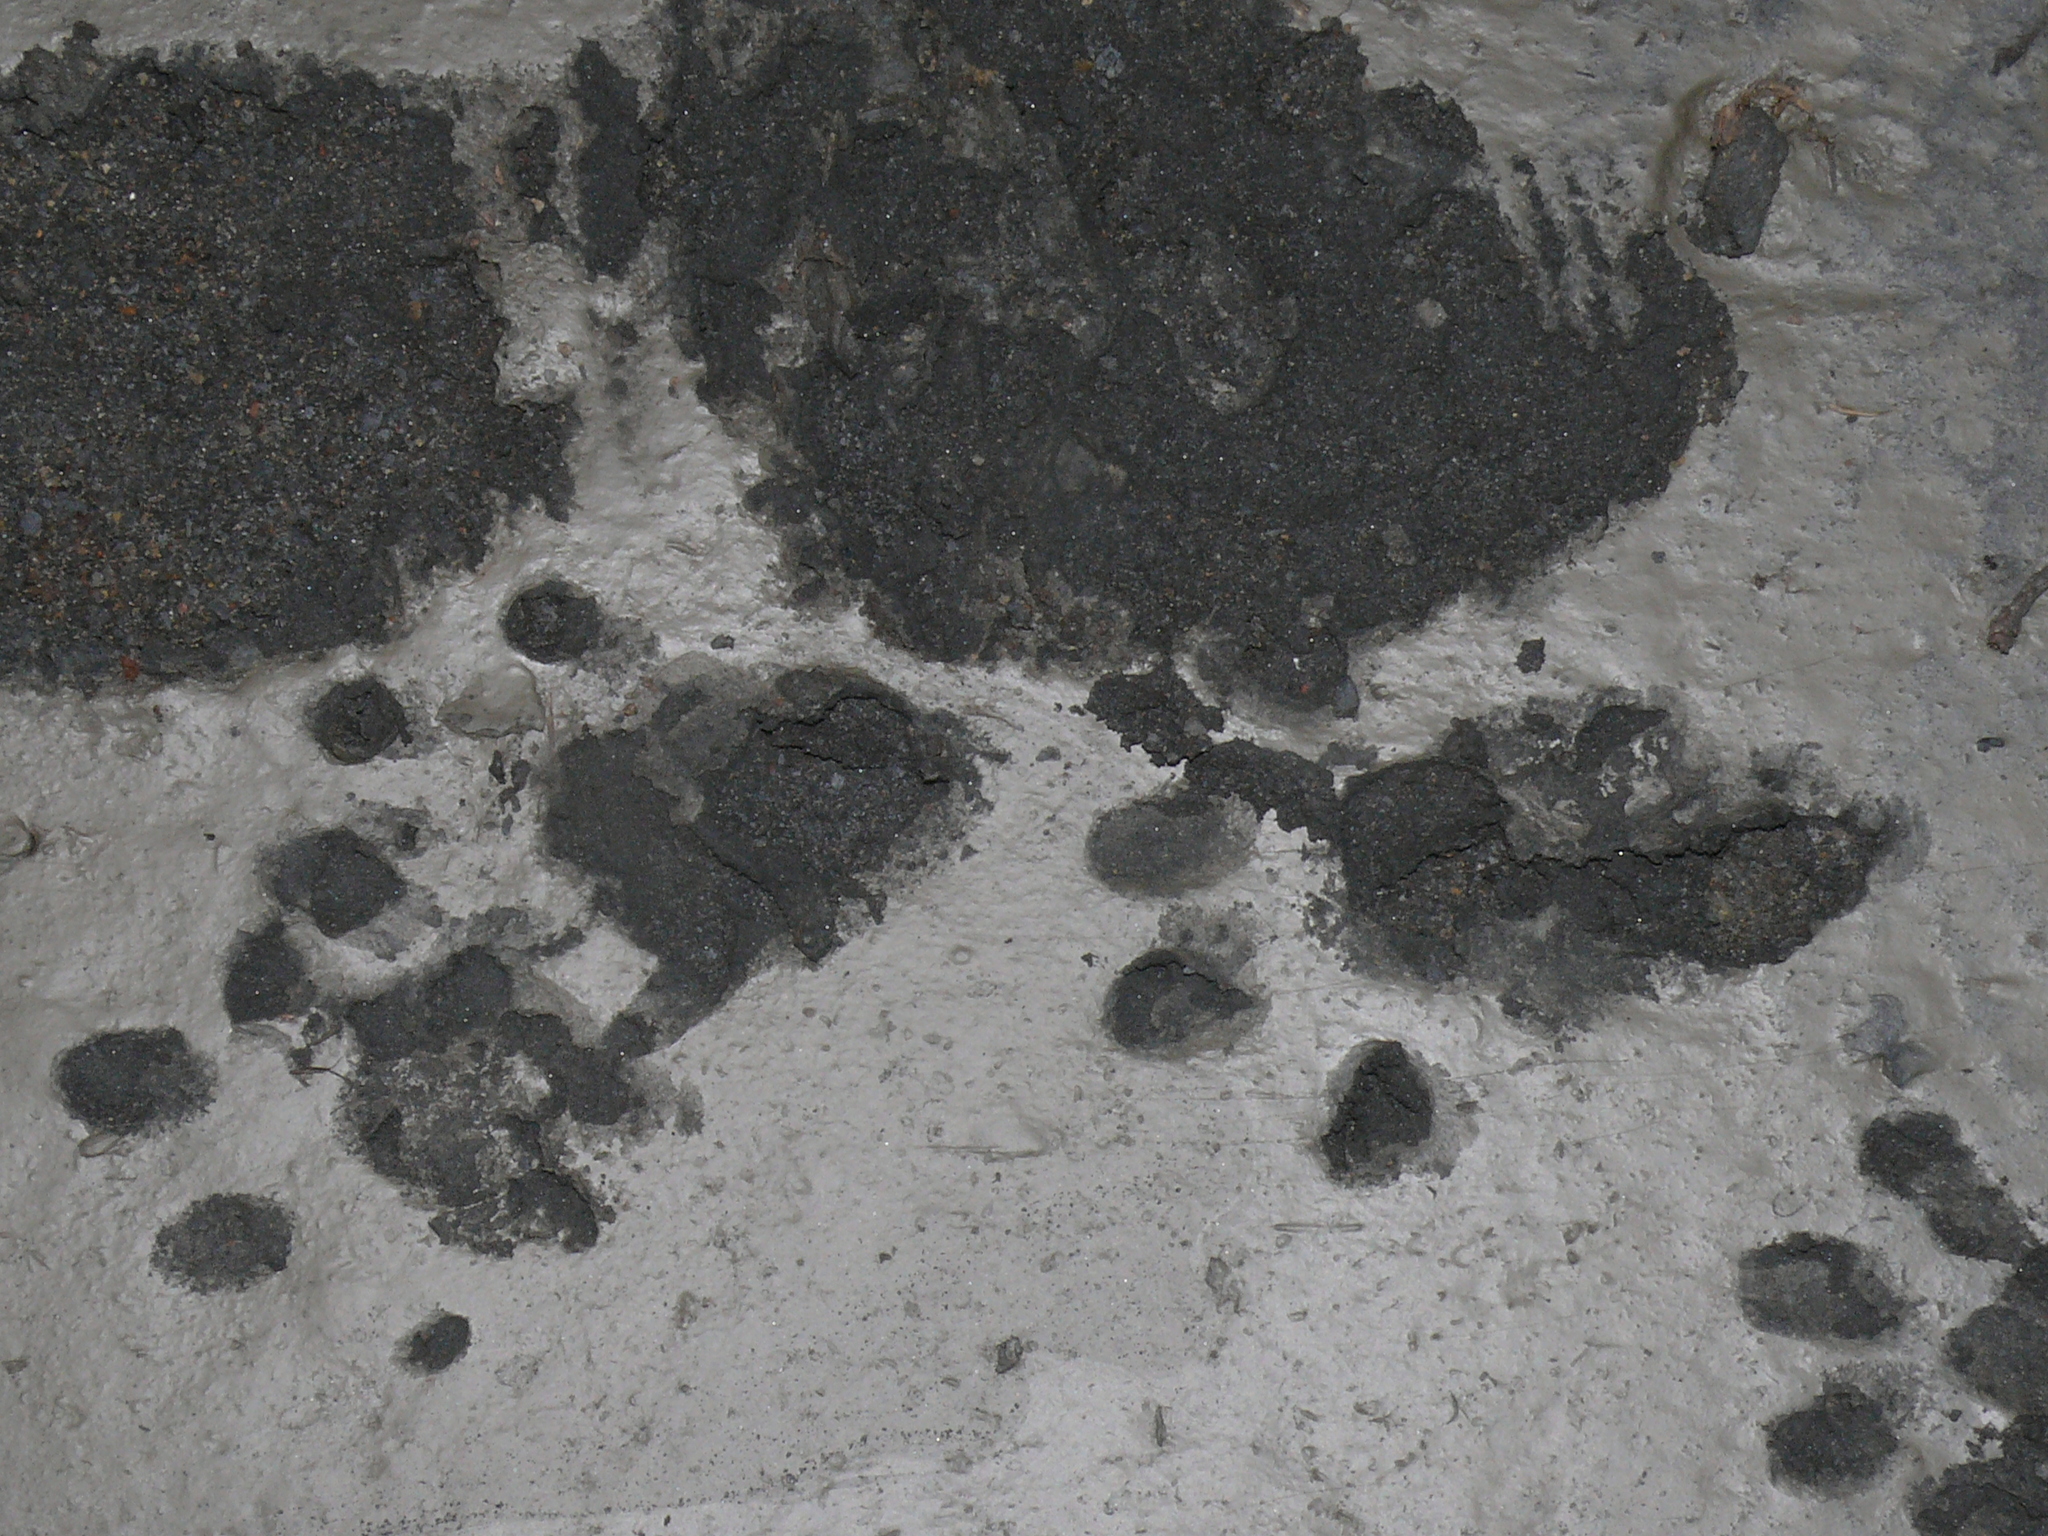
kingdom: Animalia
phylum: Chordata
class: Mammalia
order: Carnivora
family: Mustelidae
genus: Aonyx
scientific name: Aonyx capensis
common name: African clawless otter
